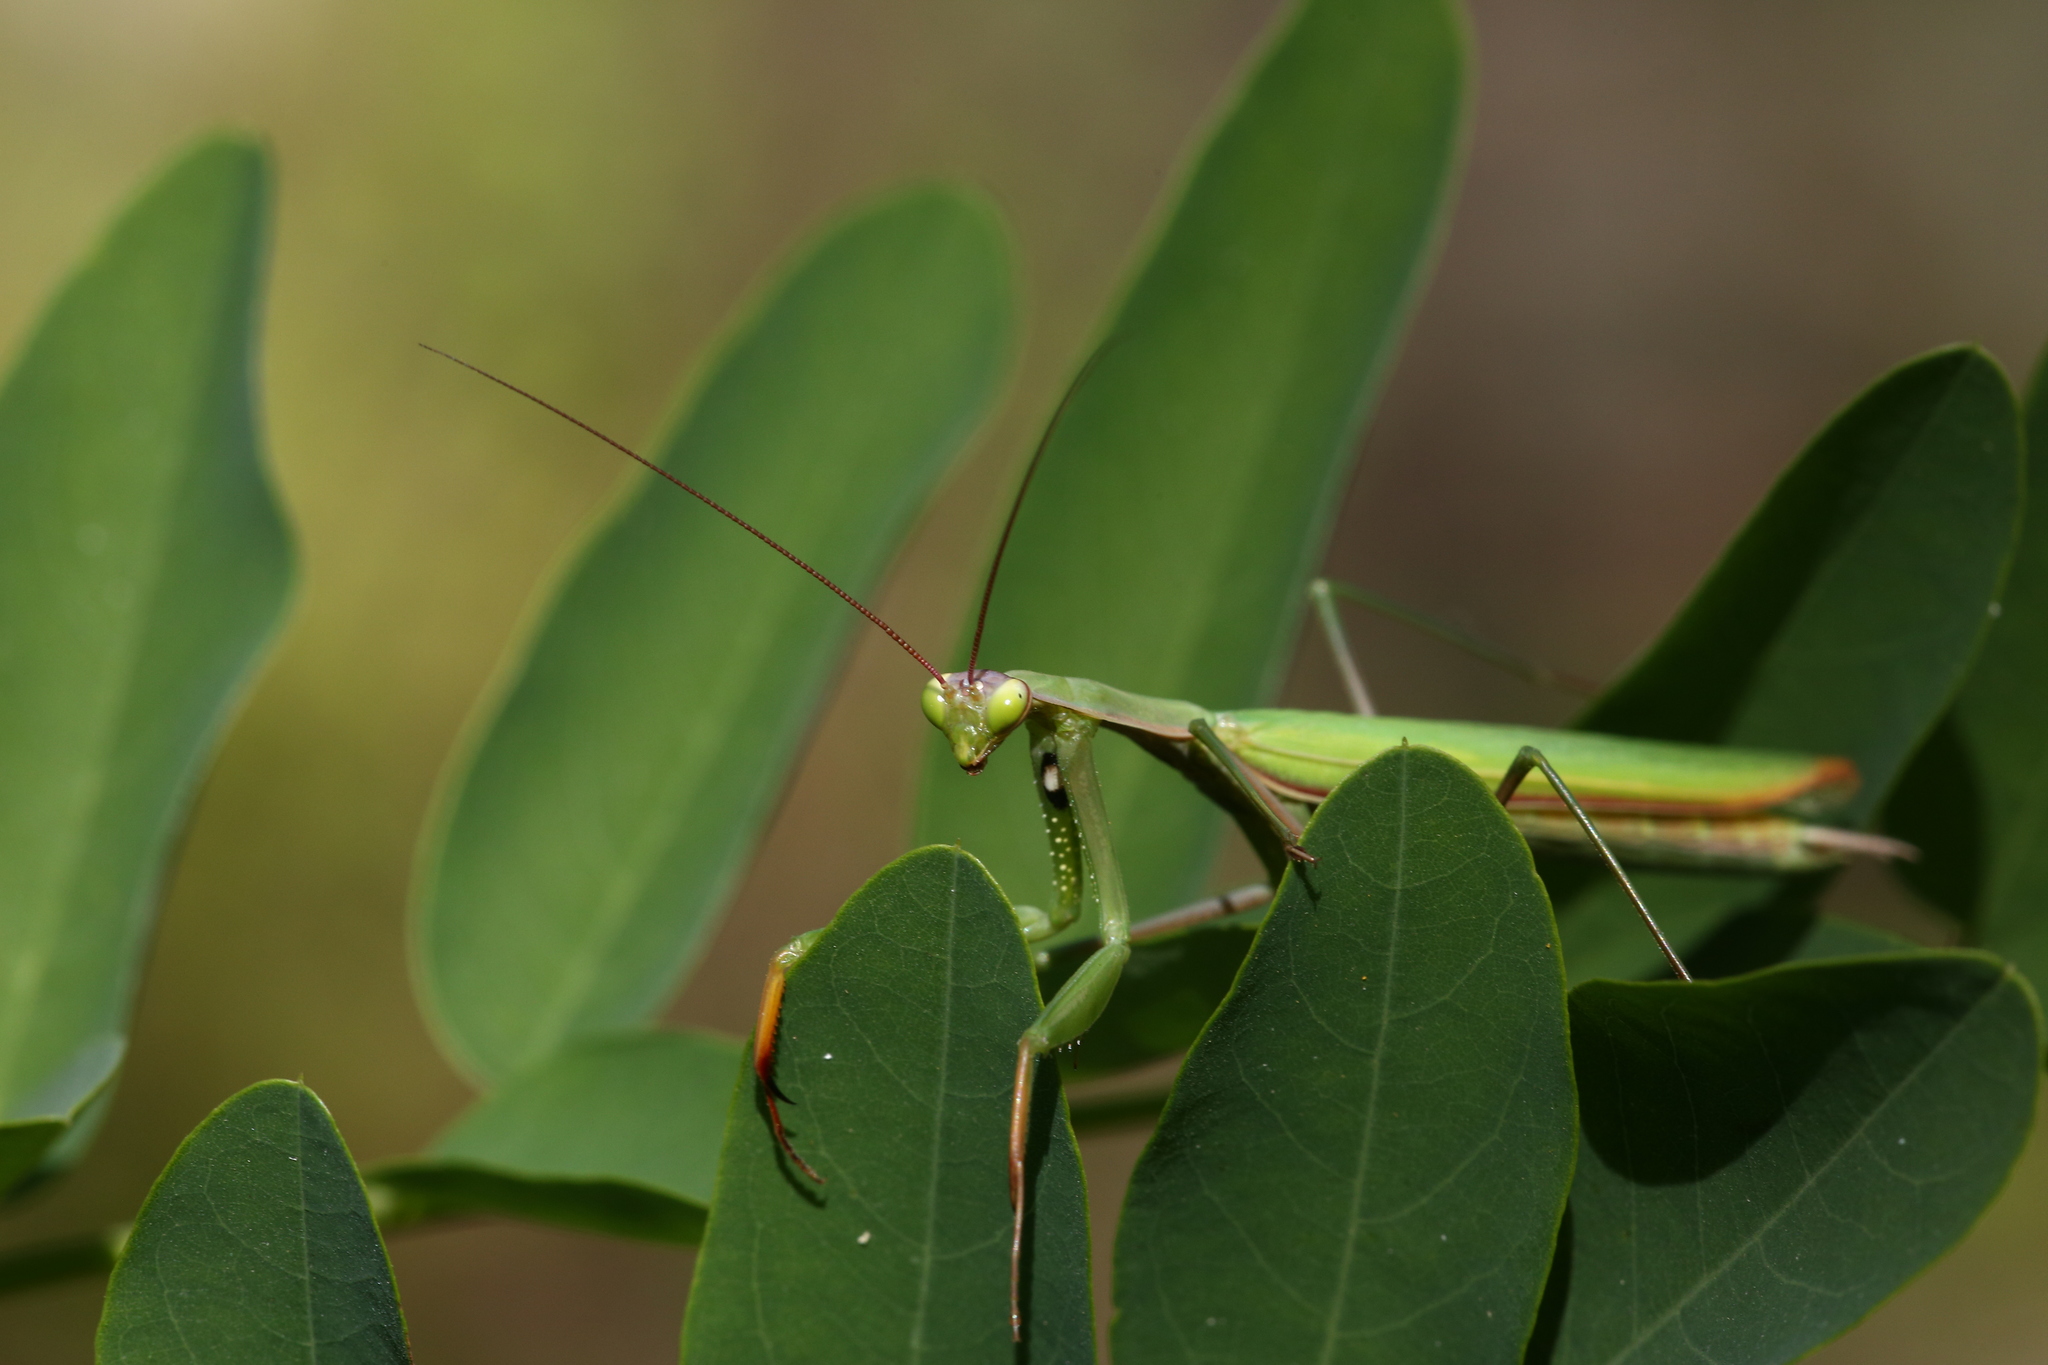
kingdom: Animalia
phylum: Arthropoda
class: Insecta
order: Mantodea
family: Mantidae
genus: Mantis
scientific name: Mantis religiosa
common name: Praying mantis
